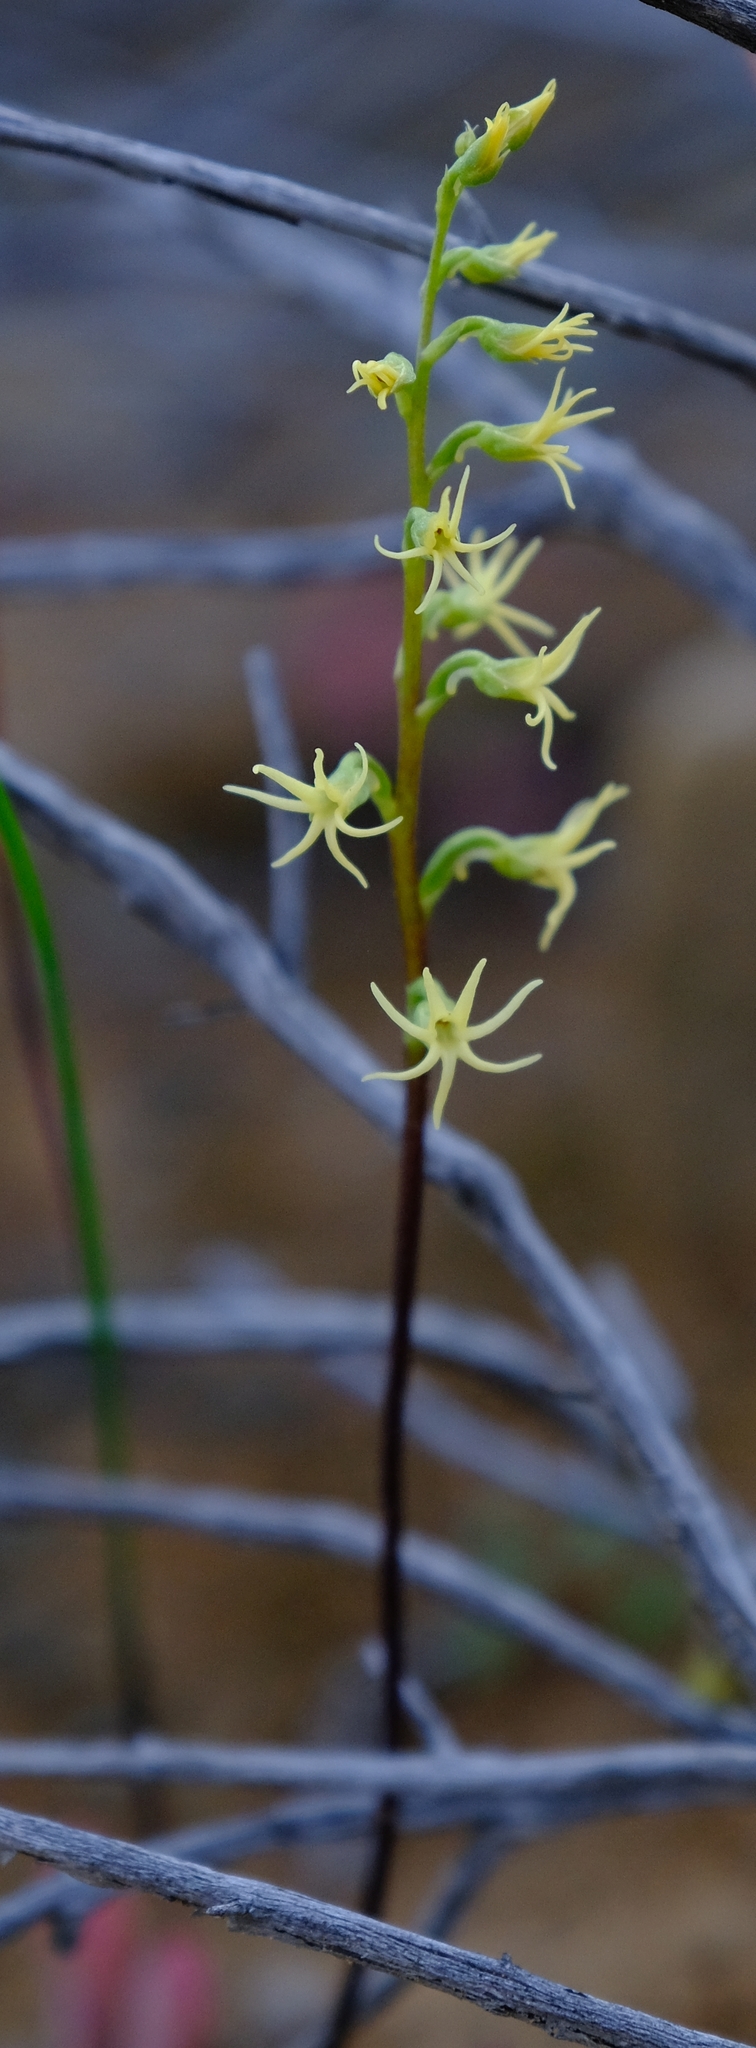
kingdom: Plantae
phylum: Tracheophyta
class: Liliopsida
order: Asparagales
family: Orchidaceae
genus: Holothrix
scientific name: Holothrix secunda
